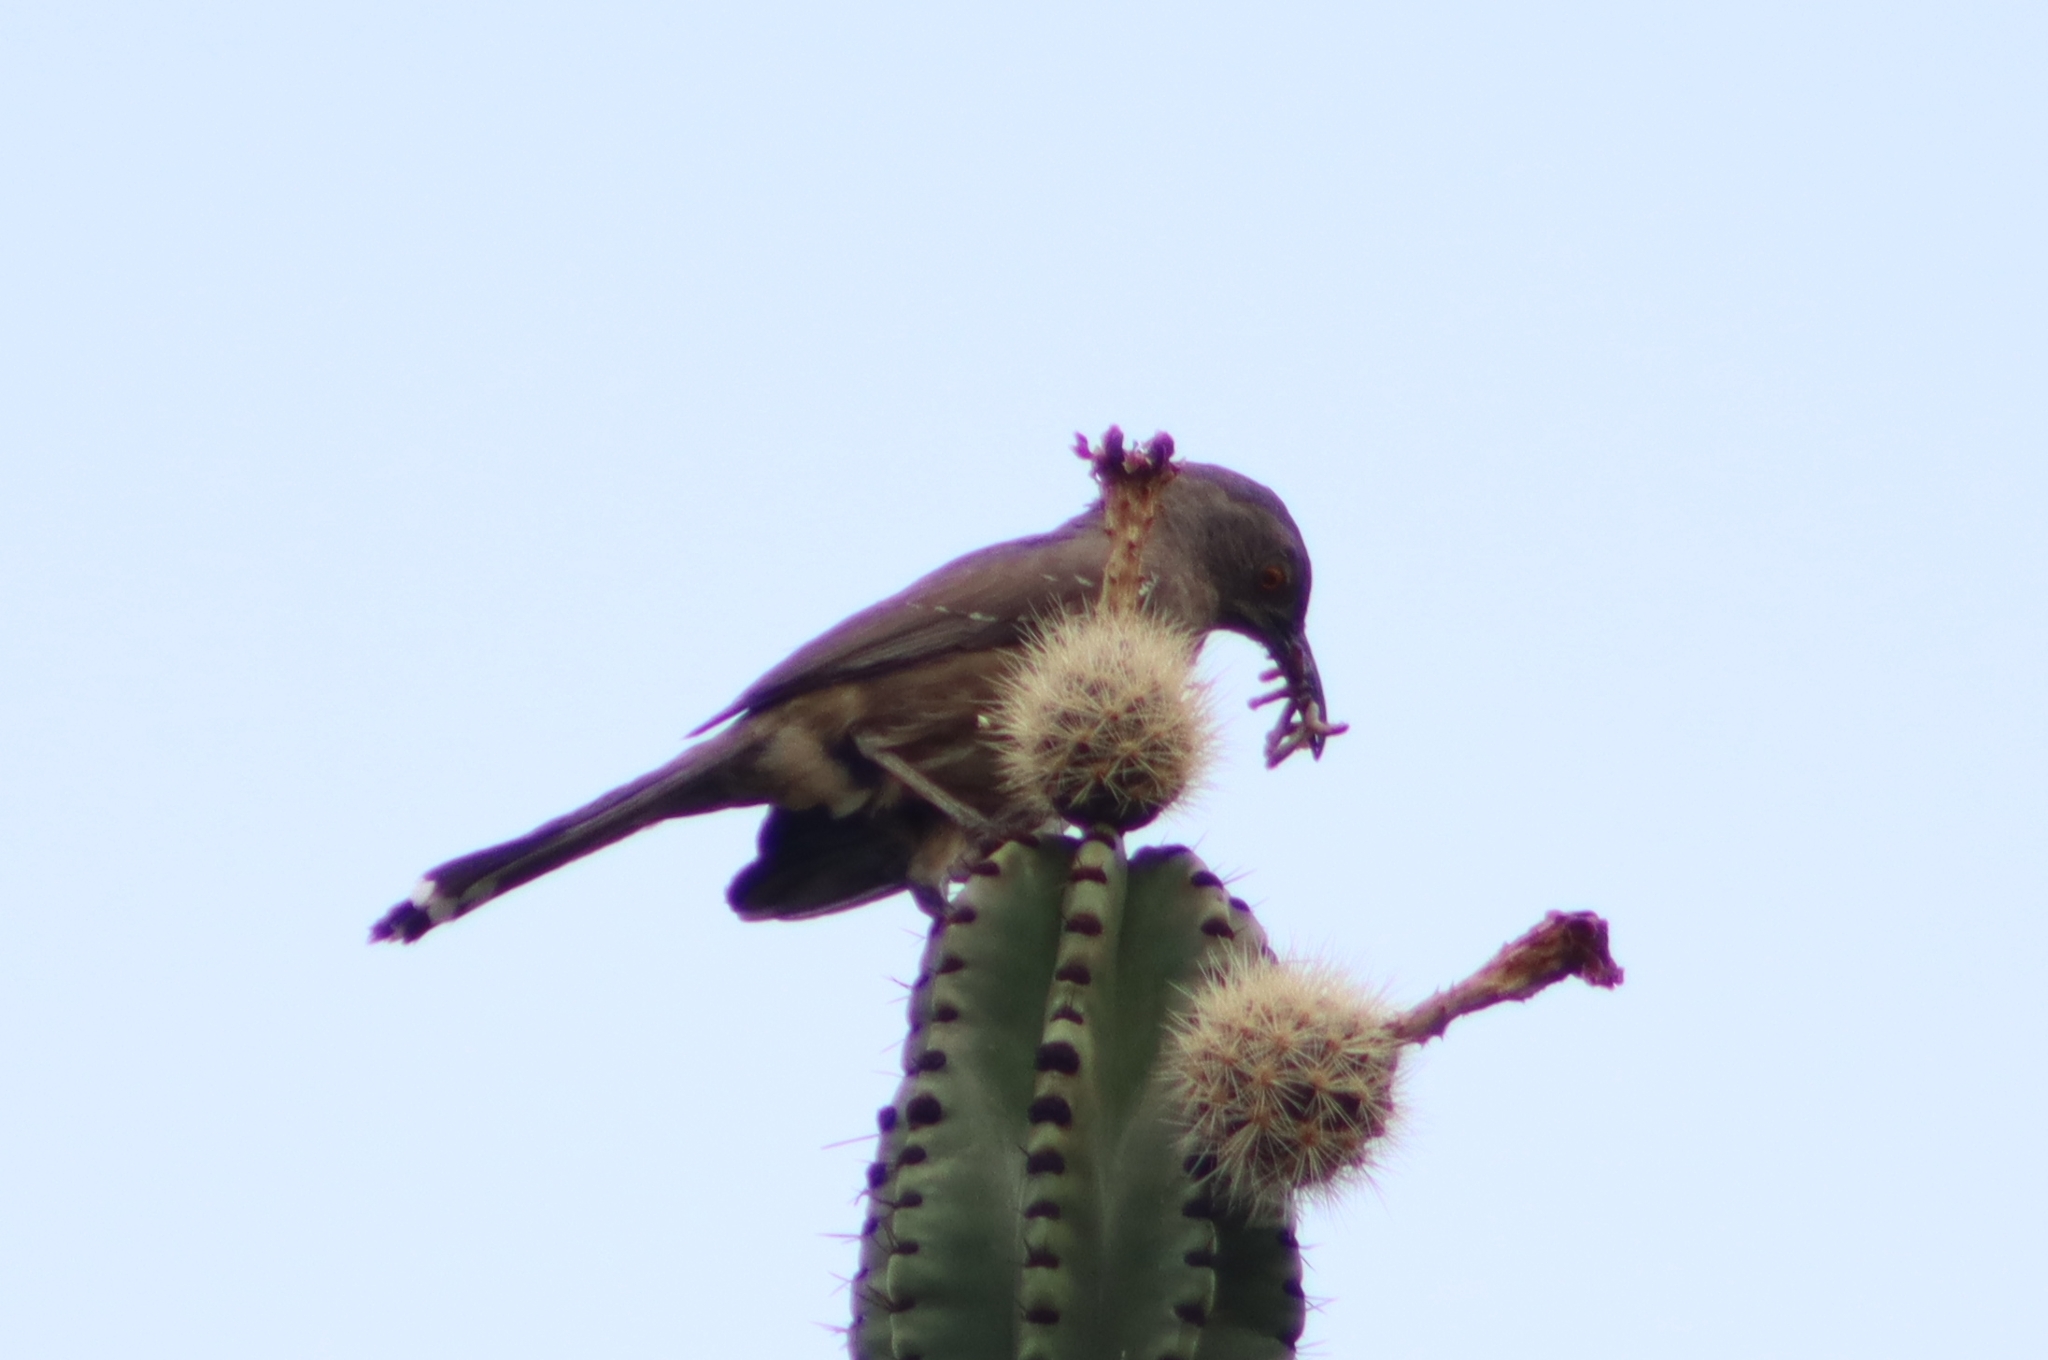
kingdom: Animalia
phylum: Chordata
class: Aves
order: Passeriformes
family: Mimidae
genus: Toxostoma
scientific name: Toxostoma curvirostre
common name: Curve-billed thrasher
